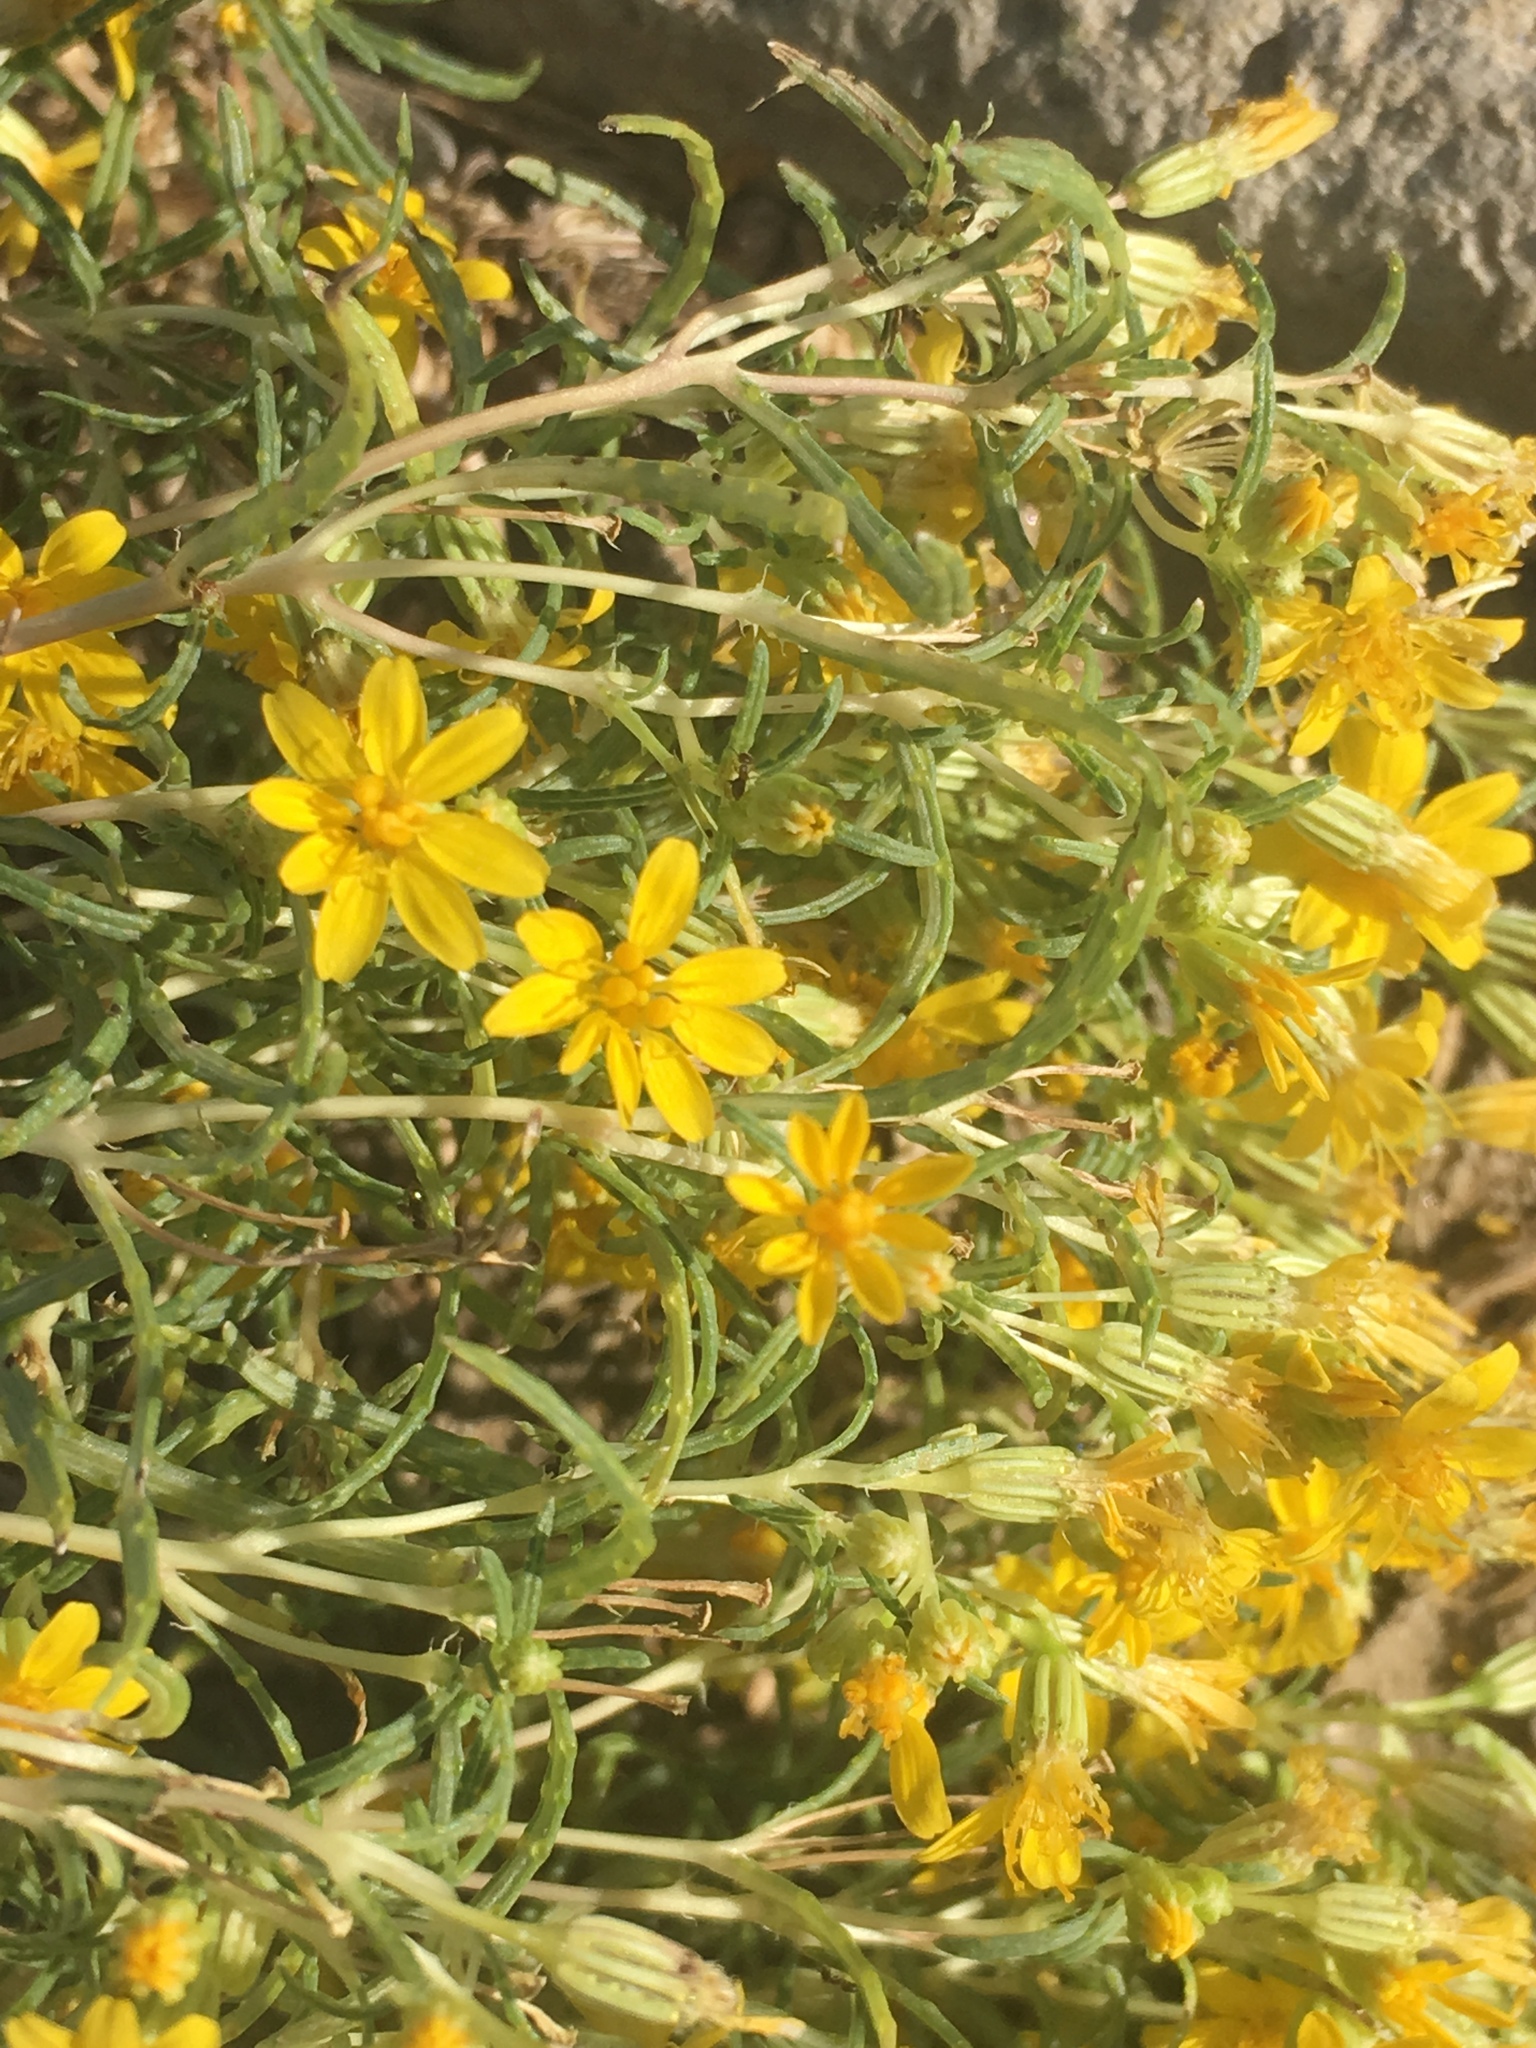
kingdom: Plantae
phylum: Tracheophyta
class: Magnoliopsida
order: Asterales
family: Asteraceae
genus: Pectis
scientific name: Pectis papposa
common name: Many-bristle chinchweed
